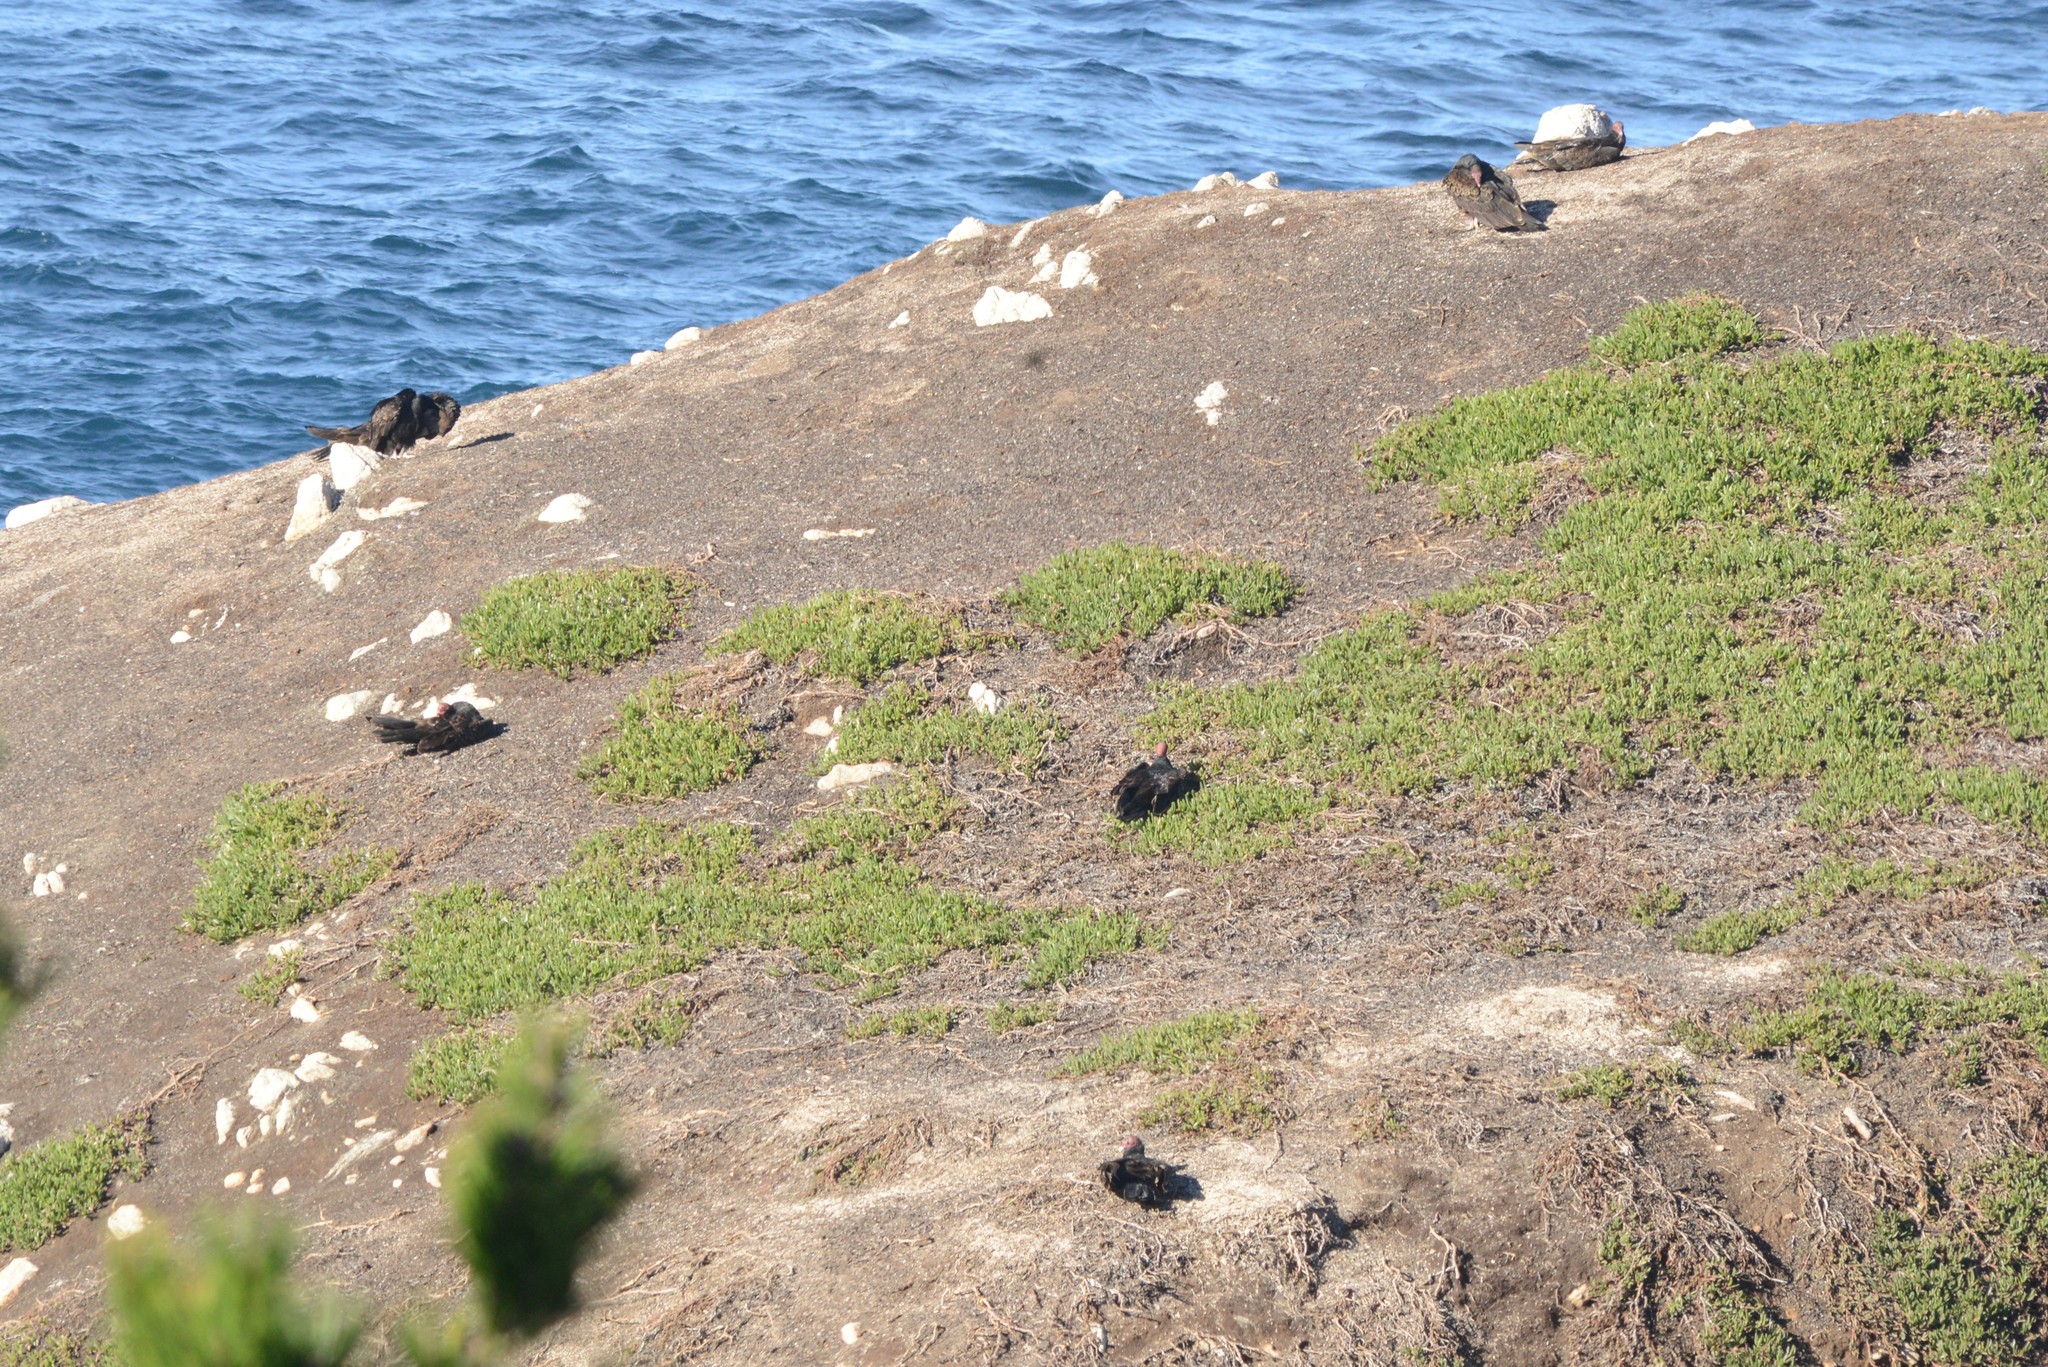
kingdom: Animalia
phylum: Chordata
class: Aves
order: Accipitriformes
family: Cathartidae
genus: Cathartes
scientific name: Cathartes aura
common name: Turkey vulture
